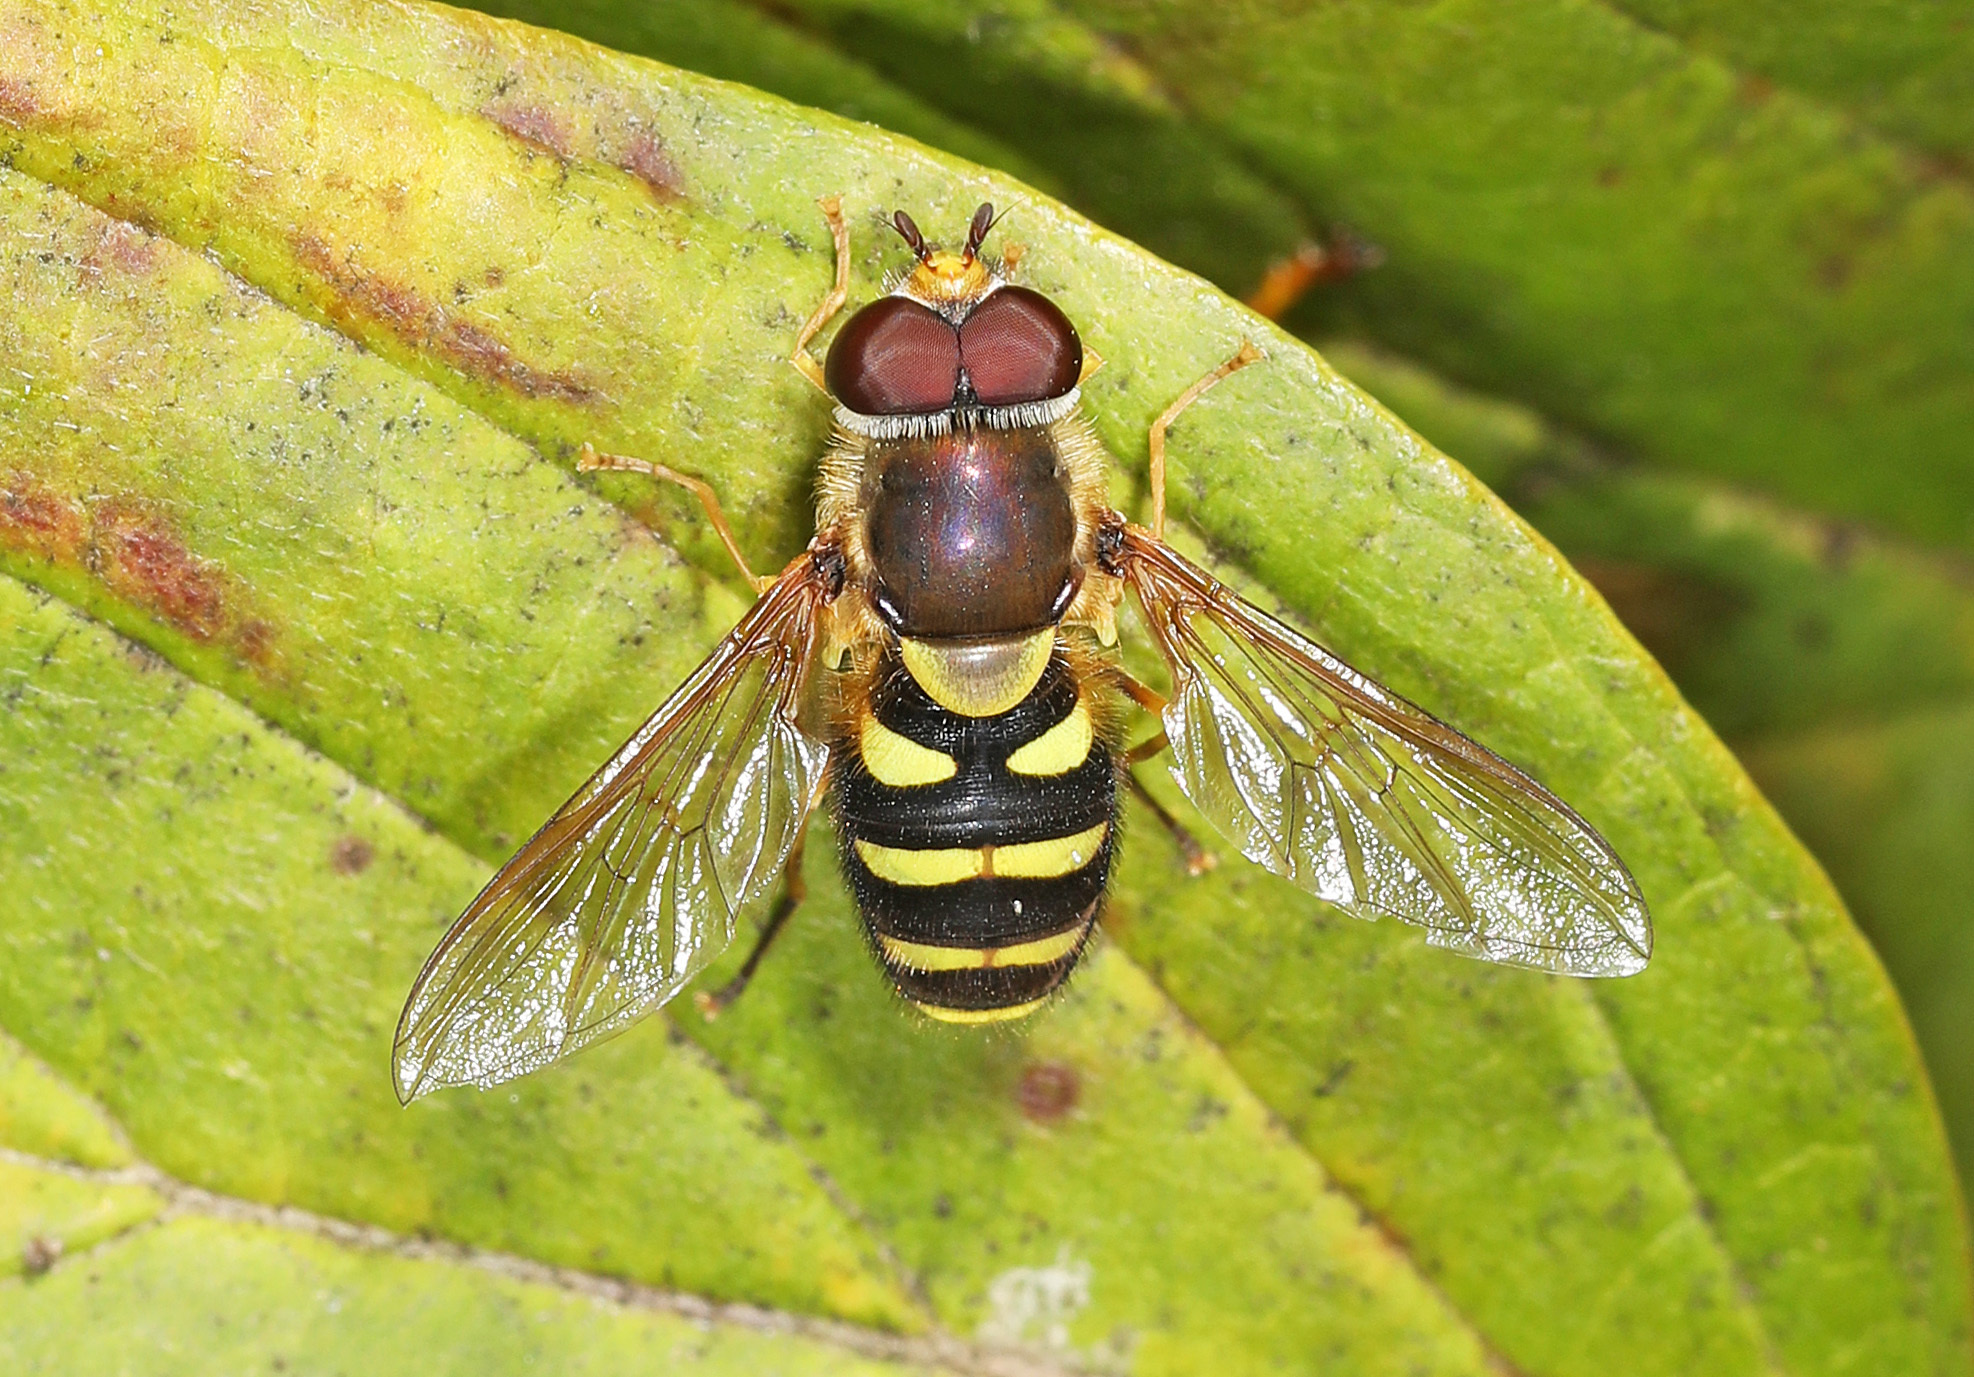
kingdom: Animalia
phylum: Arthropoda
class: Insecta
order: Diptera
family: Syrphidae
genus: Syrphus
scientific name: Syrphus opinator
